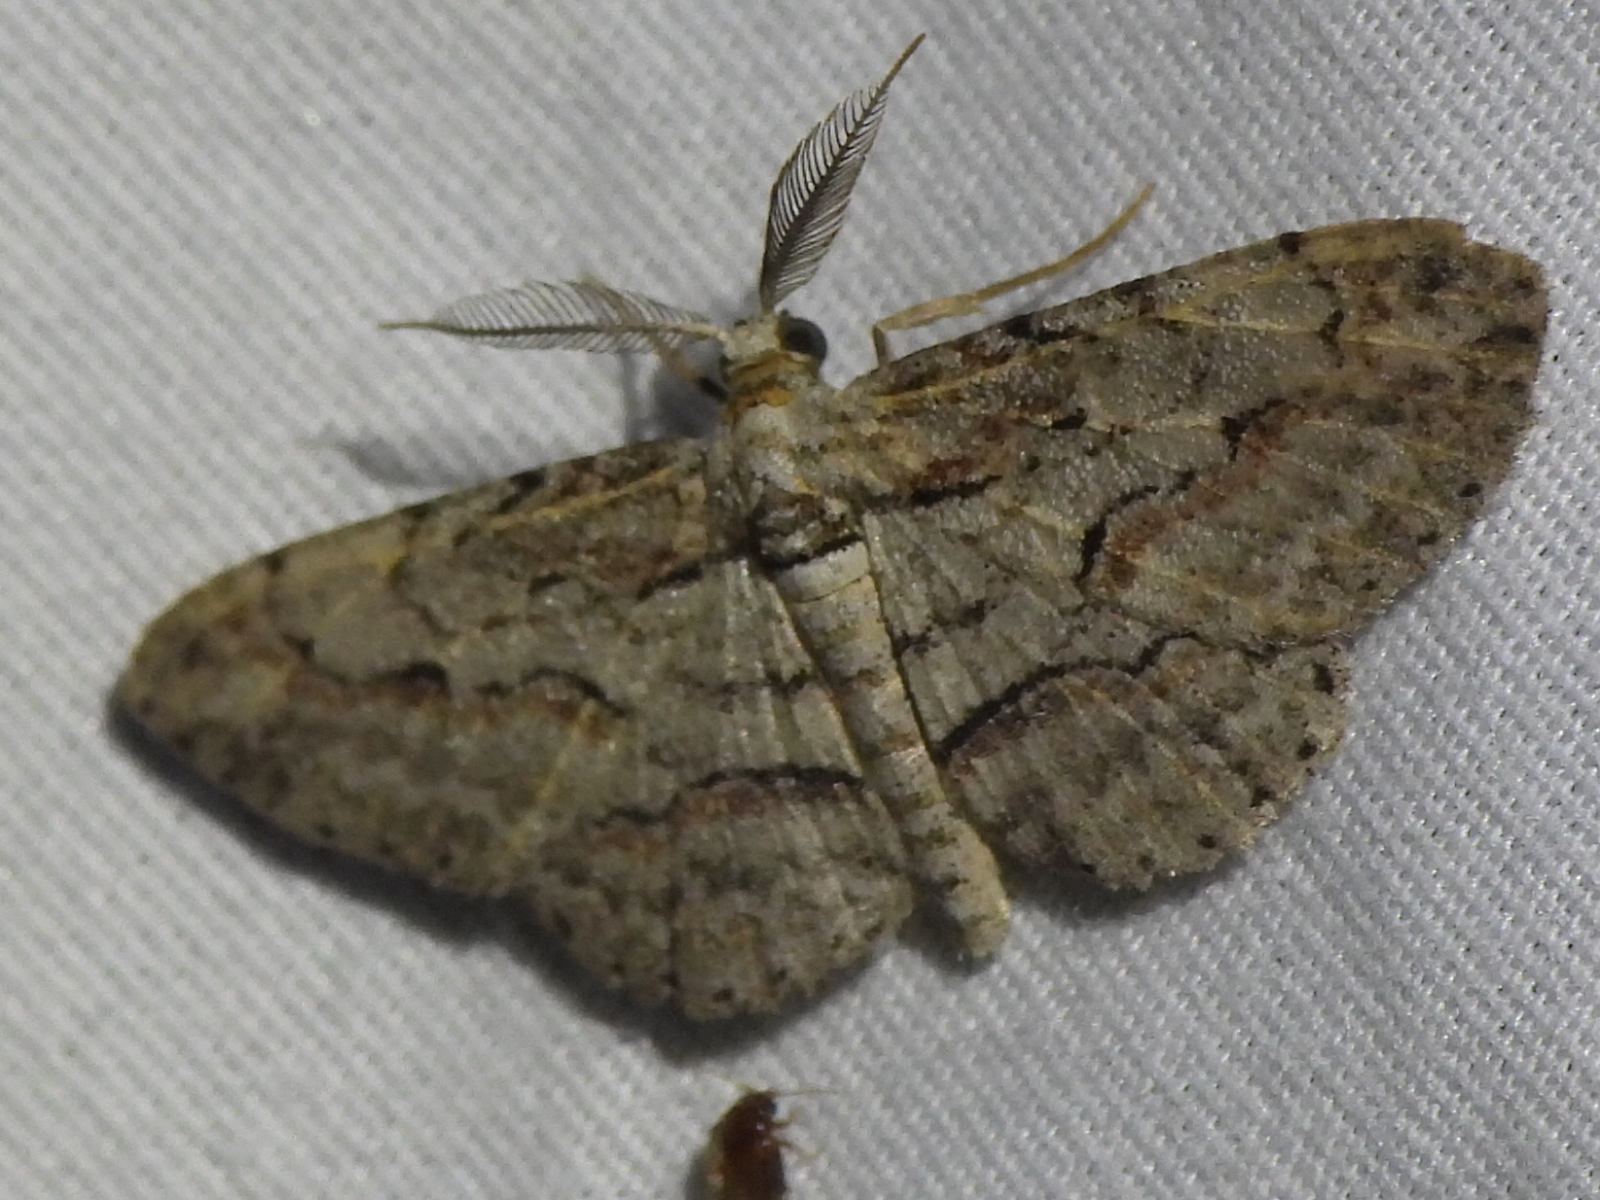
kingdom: Animalia
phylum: Arthropoda
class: Insecta
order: Lepidoptera
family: Geometridae
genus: Iridopsis
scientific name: Iridopsis defectaria
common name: Brown-shaded gray
